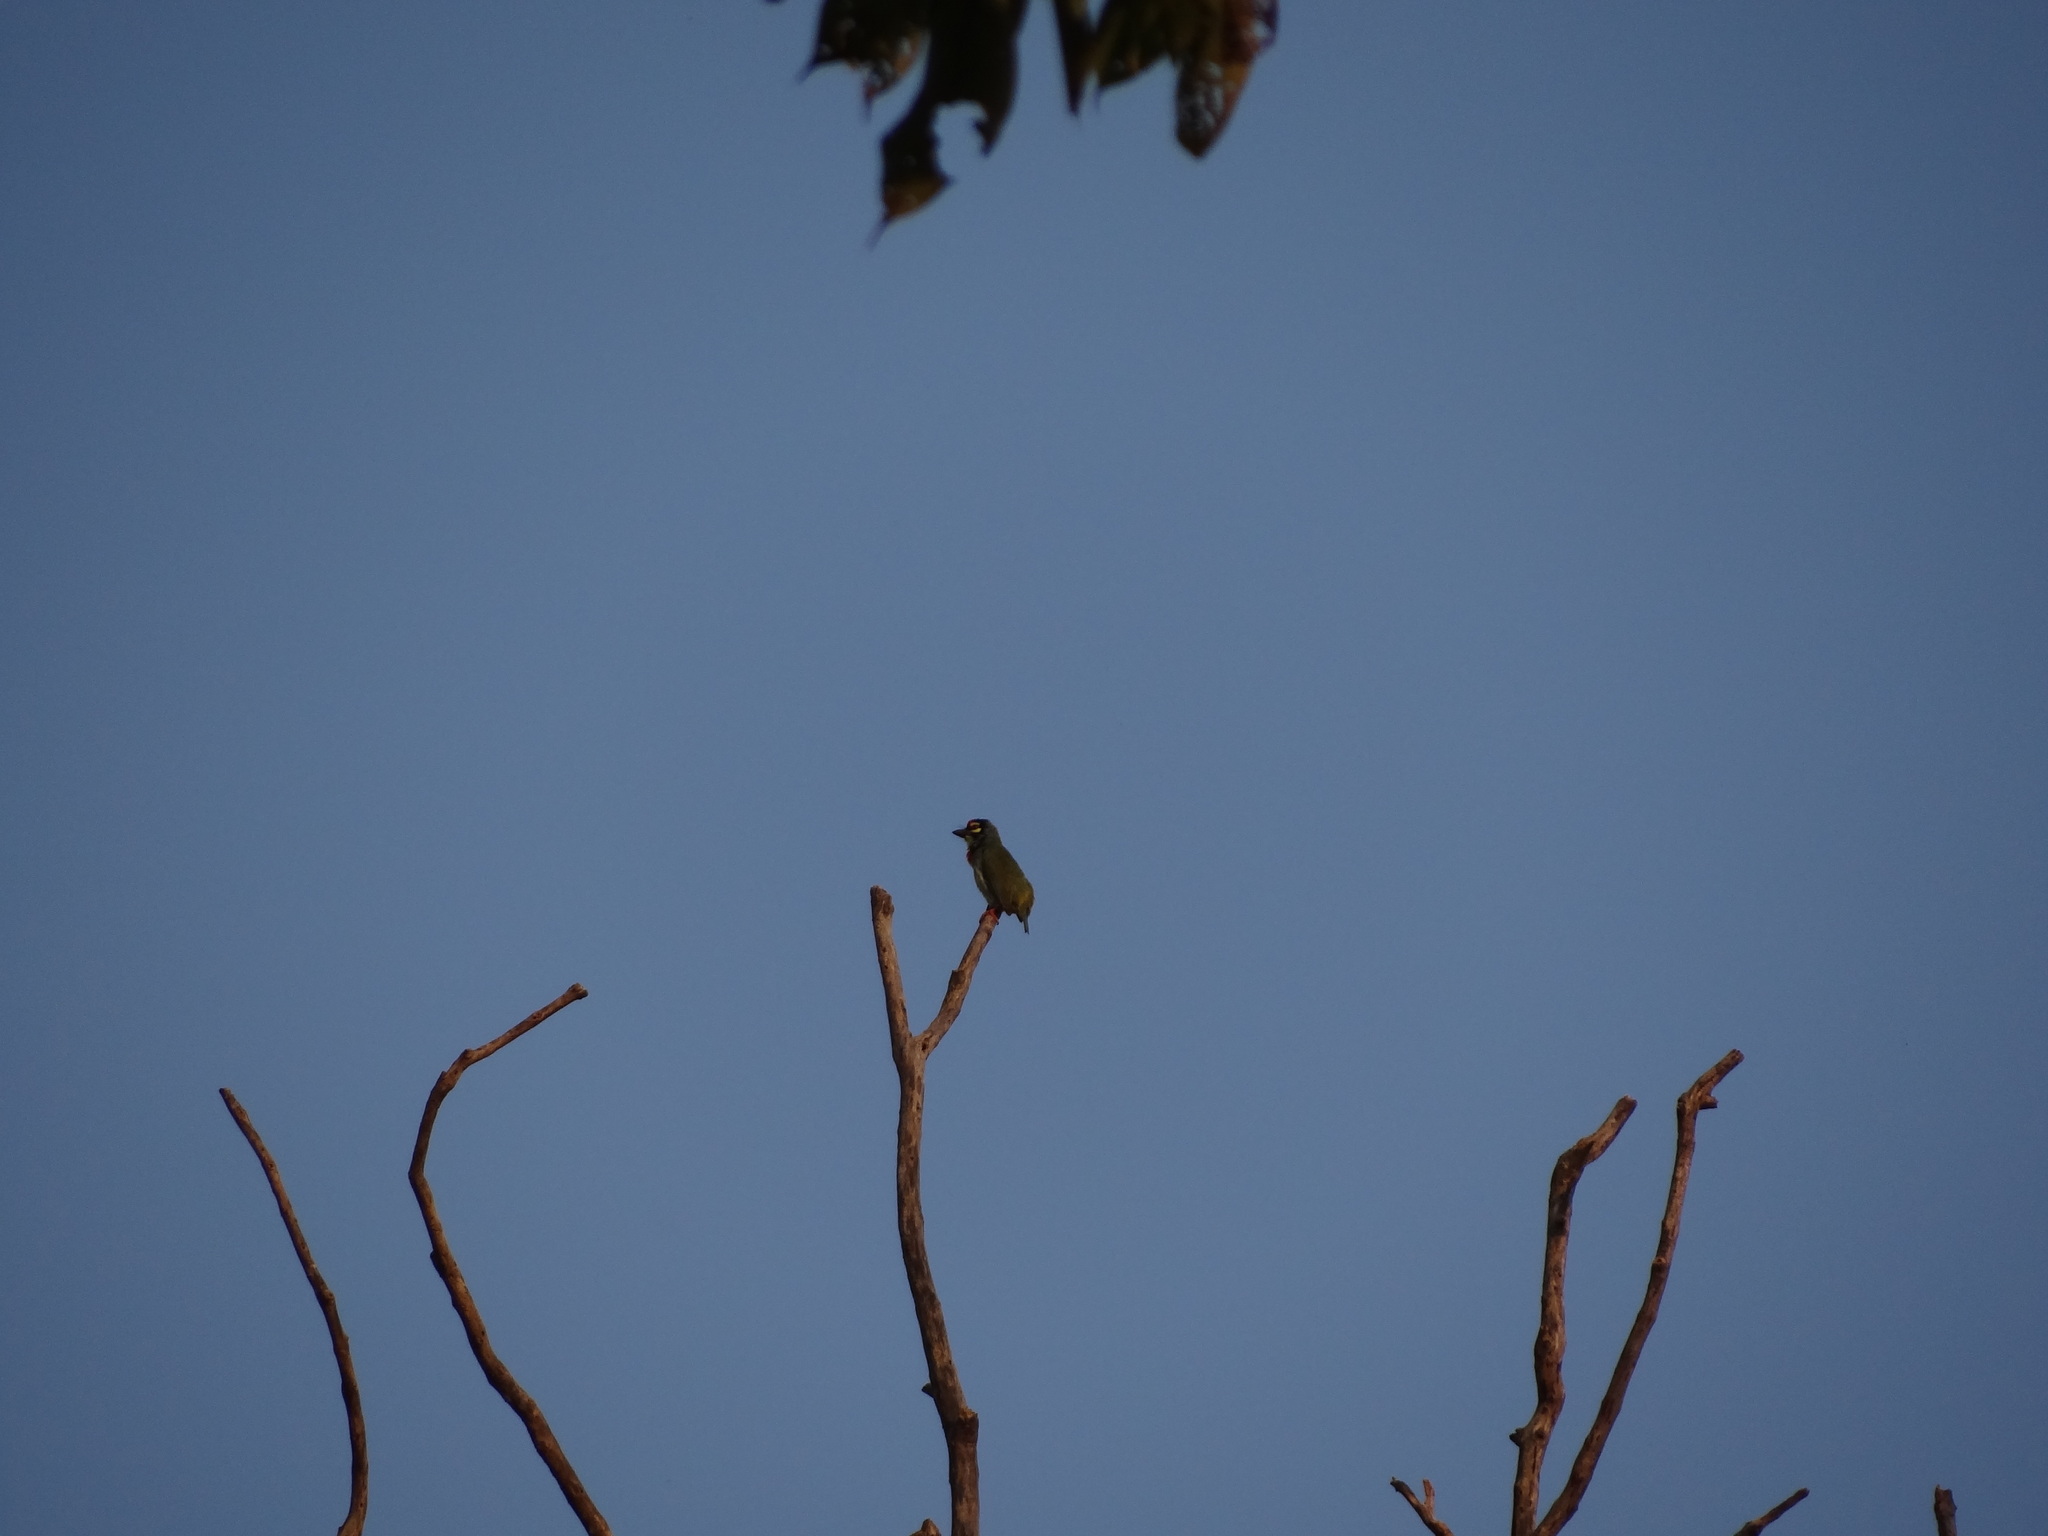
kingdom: Animalia
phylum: Chordata
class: Aves
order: Piciformes
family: Megalaimidae
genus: Psilopogon
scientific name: Psilopogon haemacephalus
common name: Coppersmith barbet
